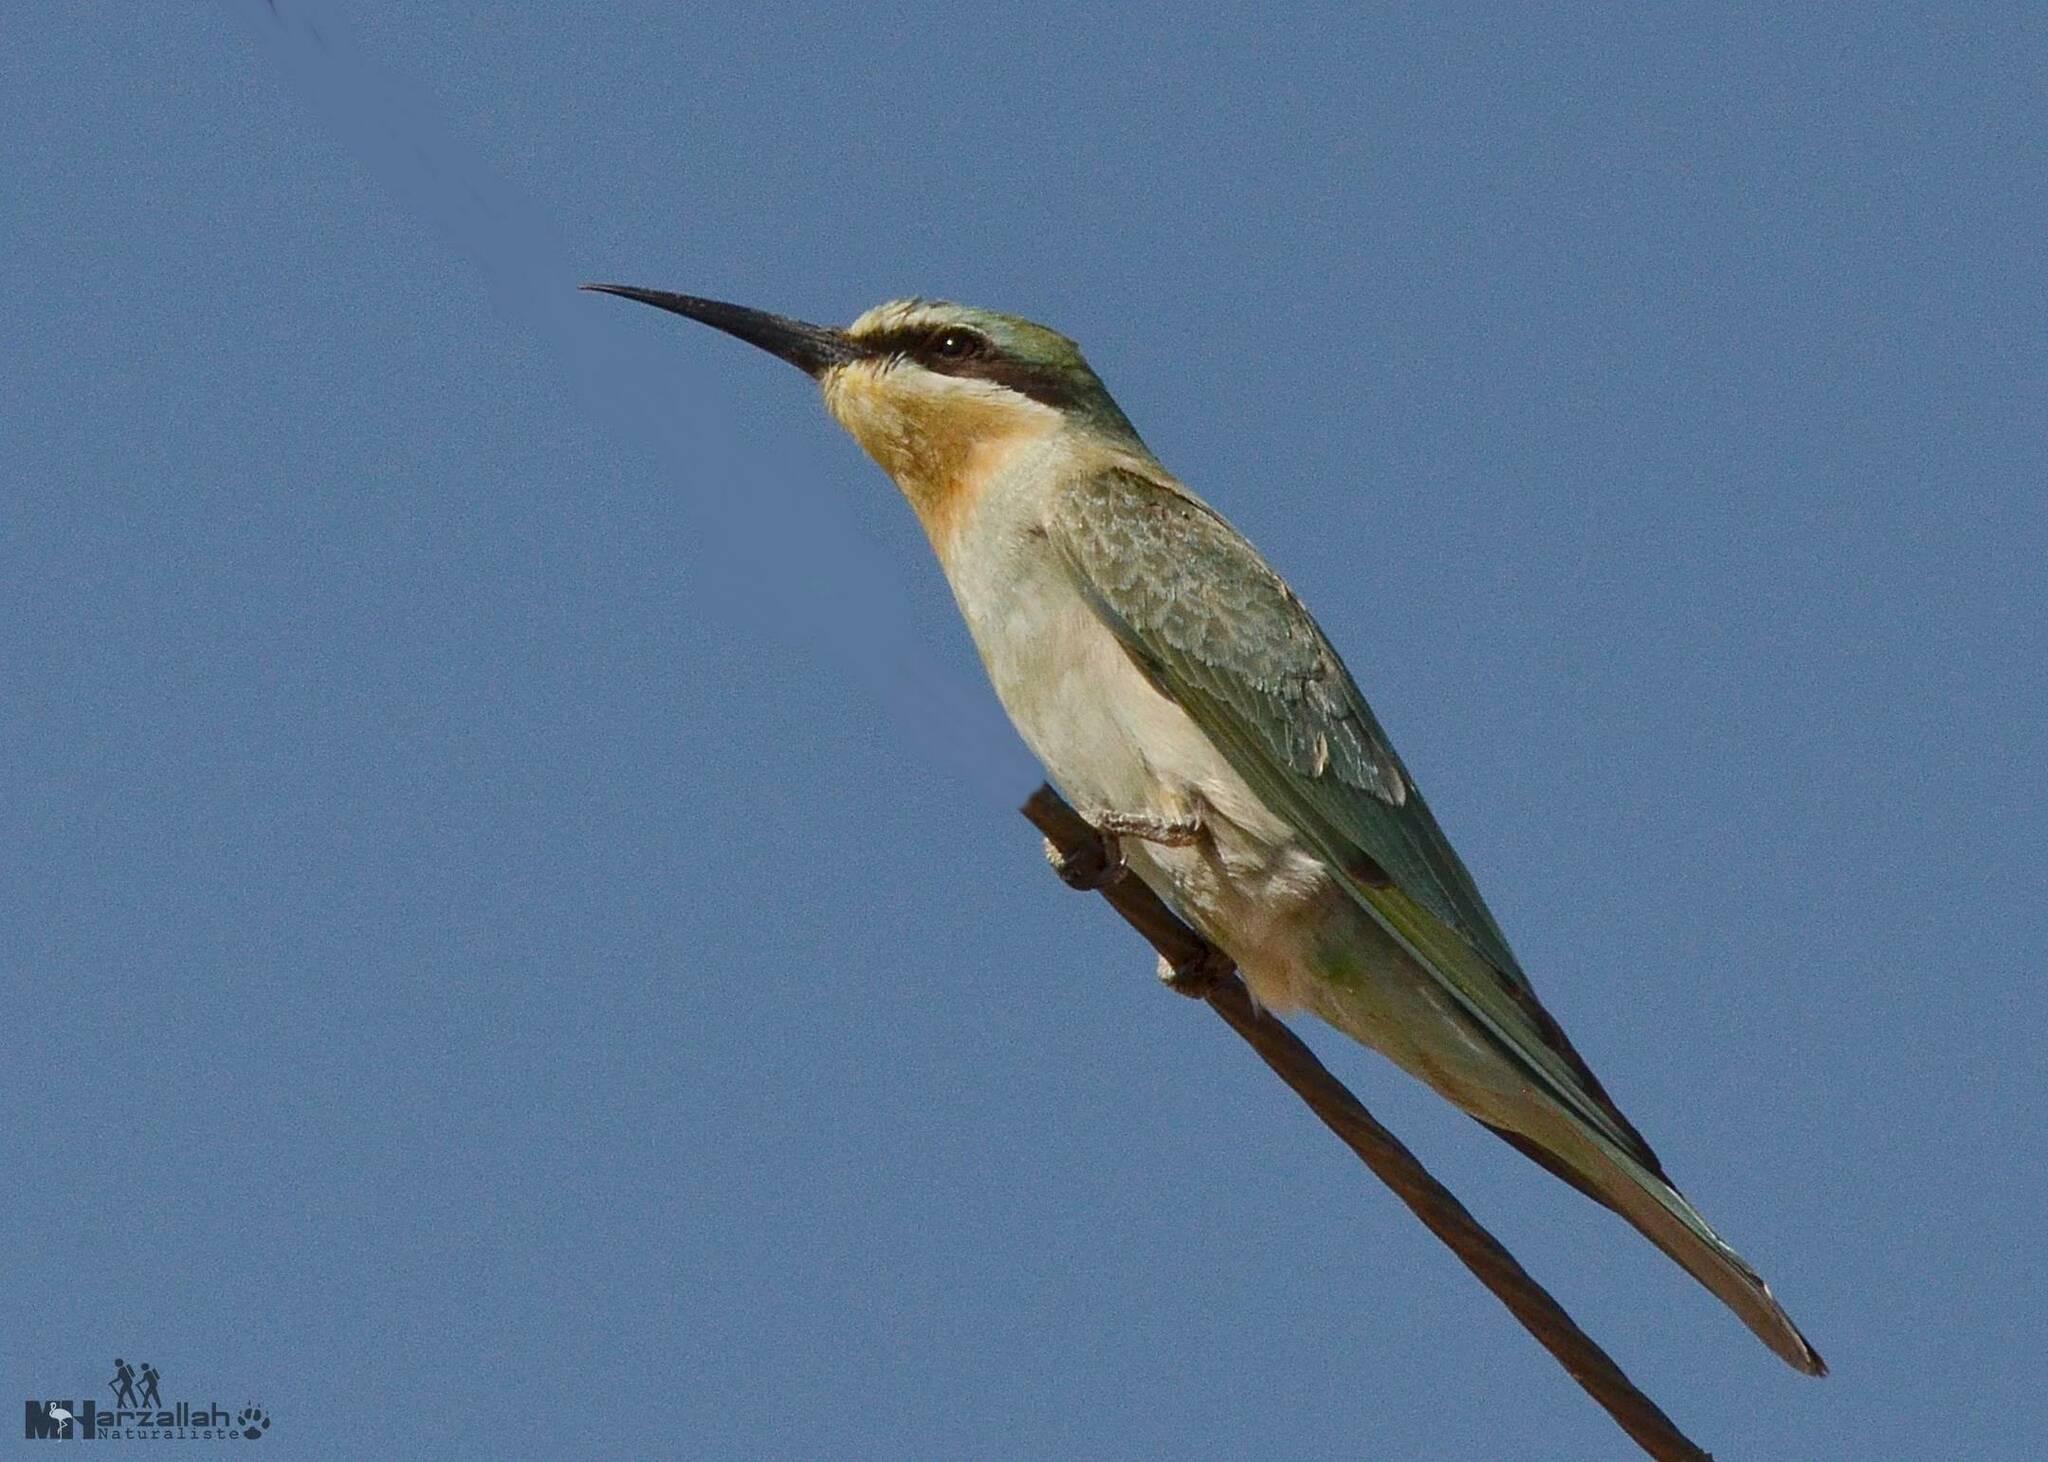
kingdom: Animalia
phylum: Chordata
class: Aves
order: Coraciiformes
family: Meropidae
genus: Merops
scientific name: Merops persicus
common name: Blue-cheeked bee-eater
